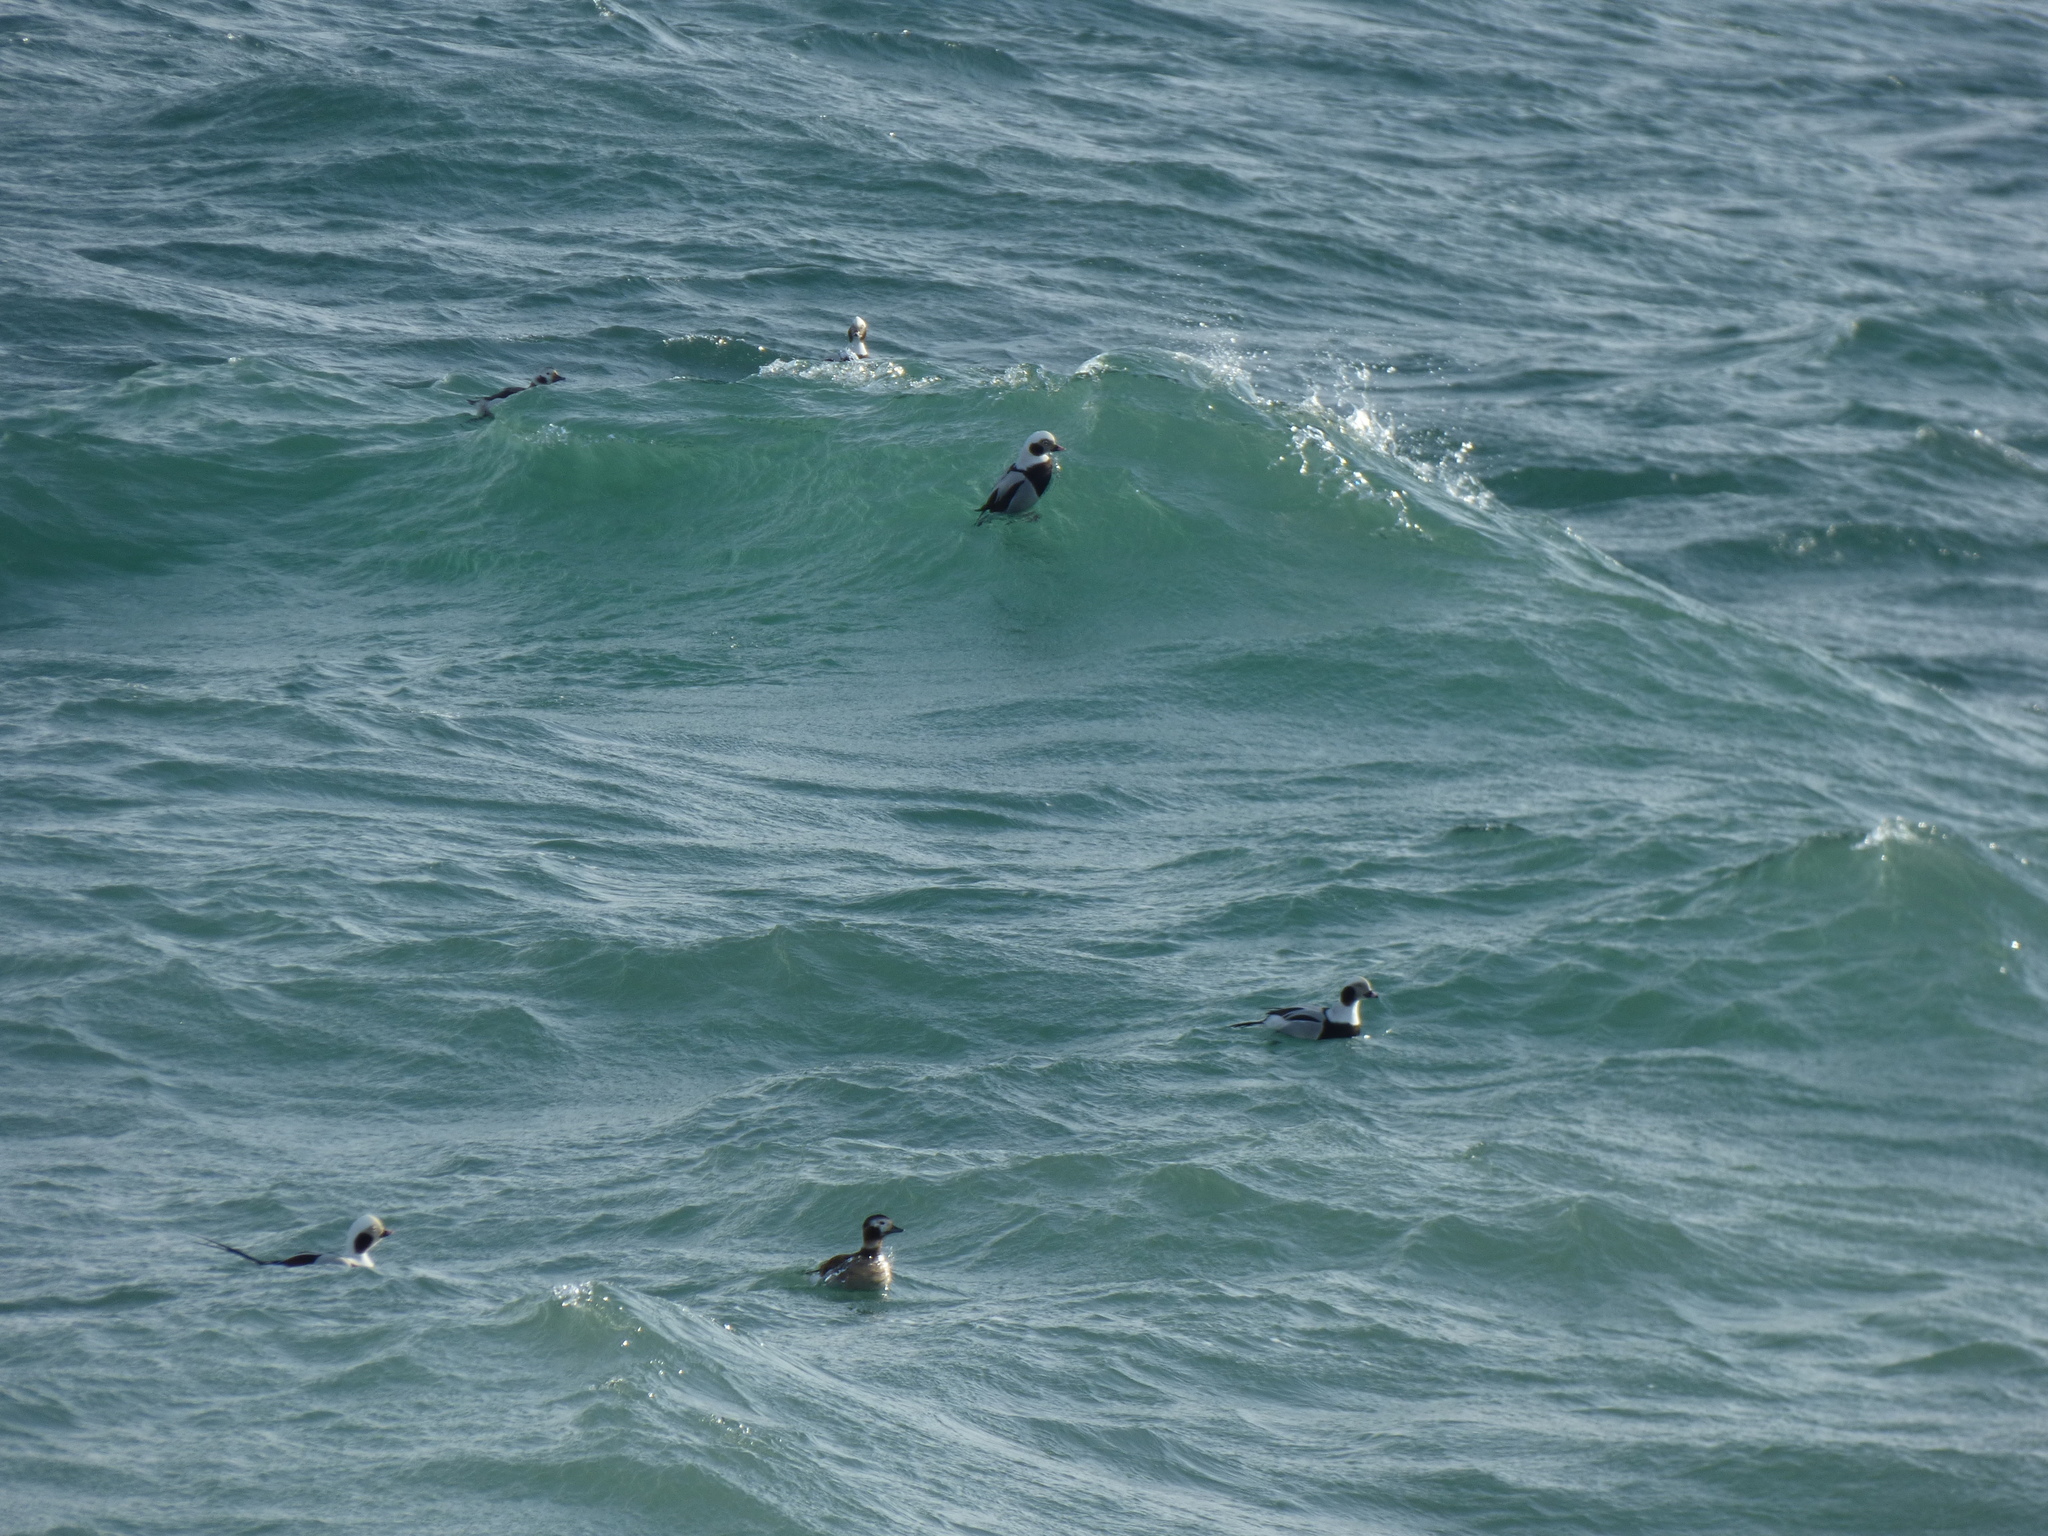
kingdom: Animalia
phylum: Chordata
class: Aves
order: Anseriformes
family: Anatidae
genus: Clangula
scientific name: Clangula hyemalis
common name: Long-tailed duck
